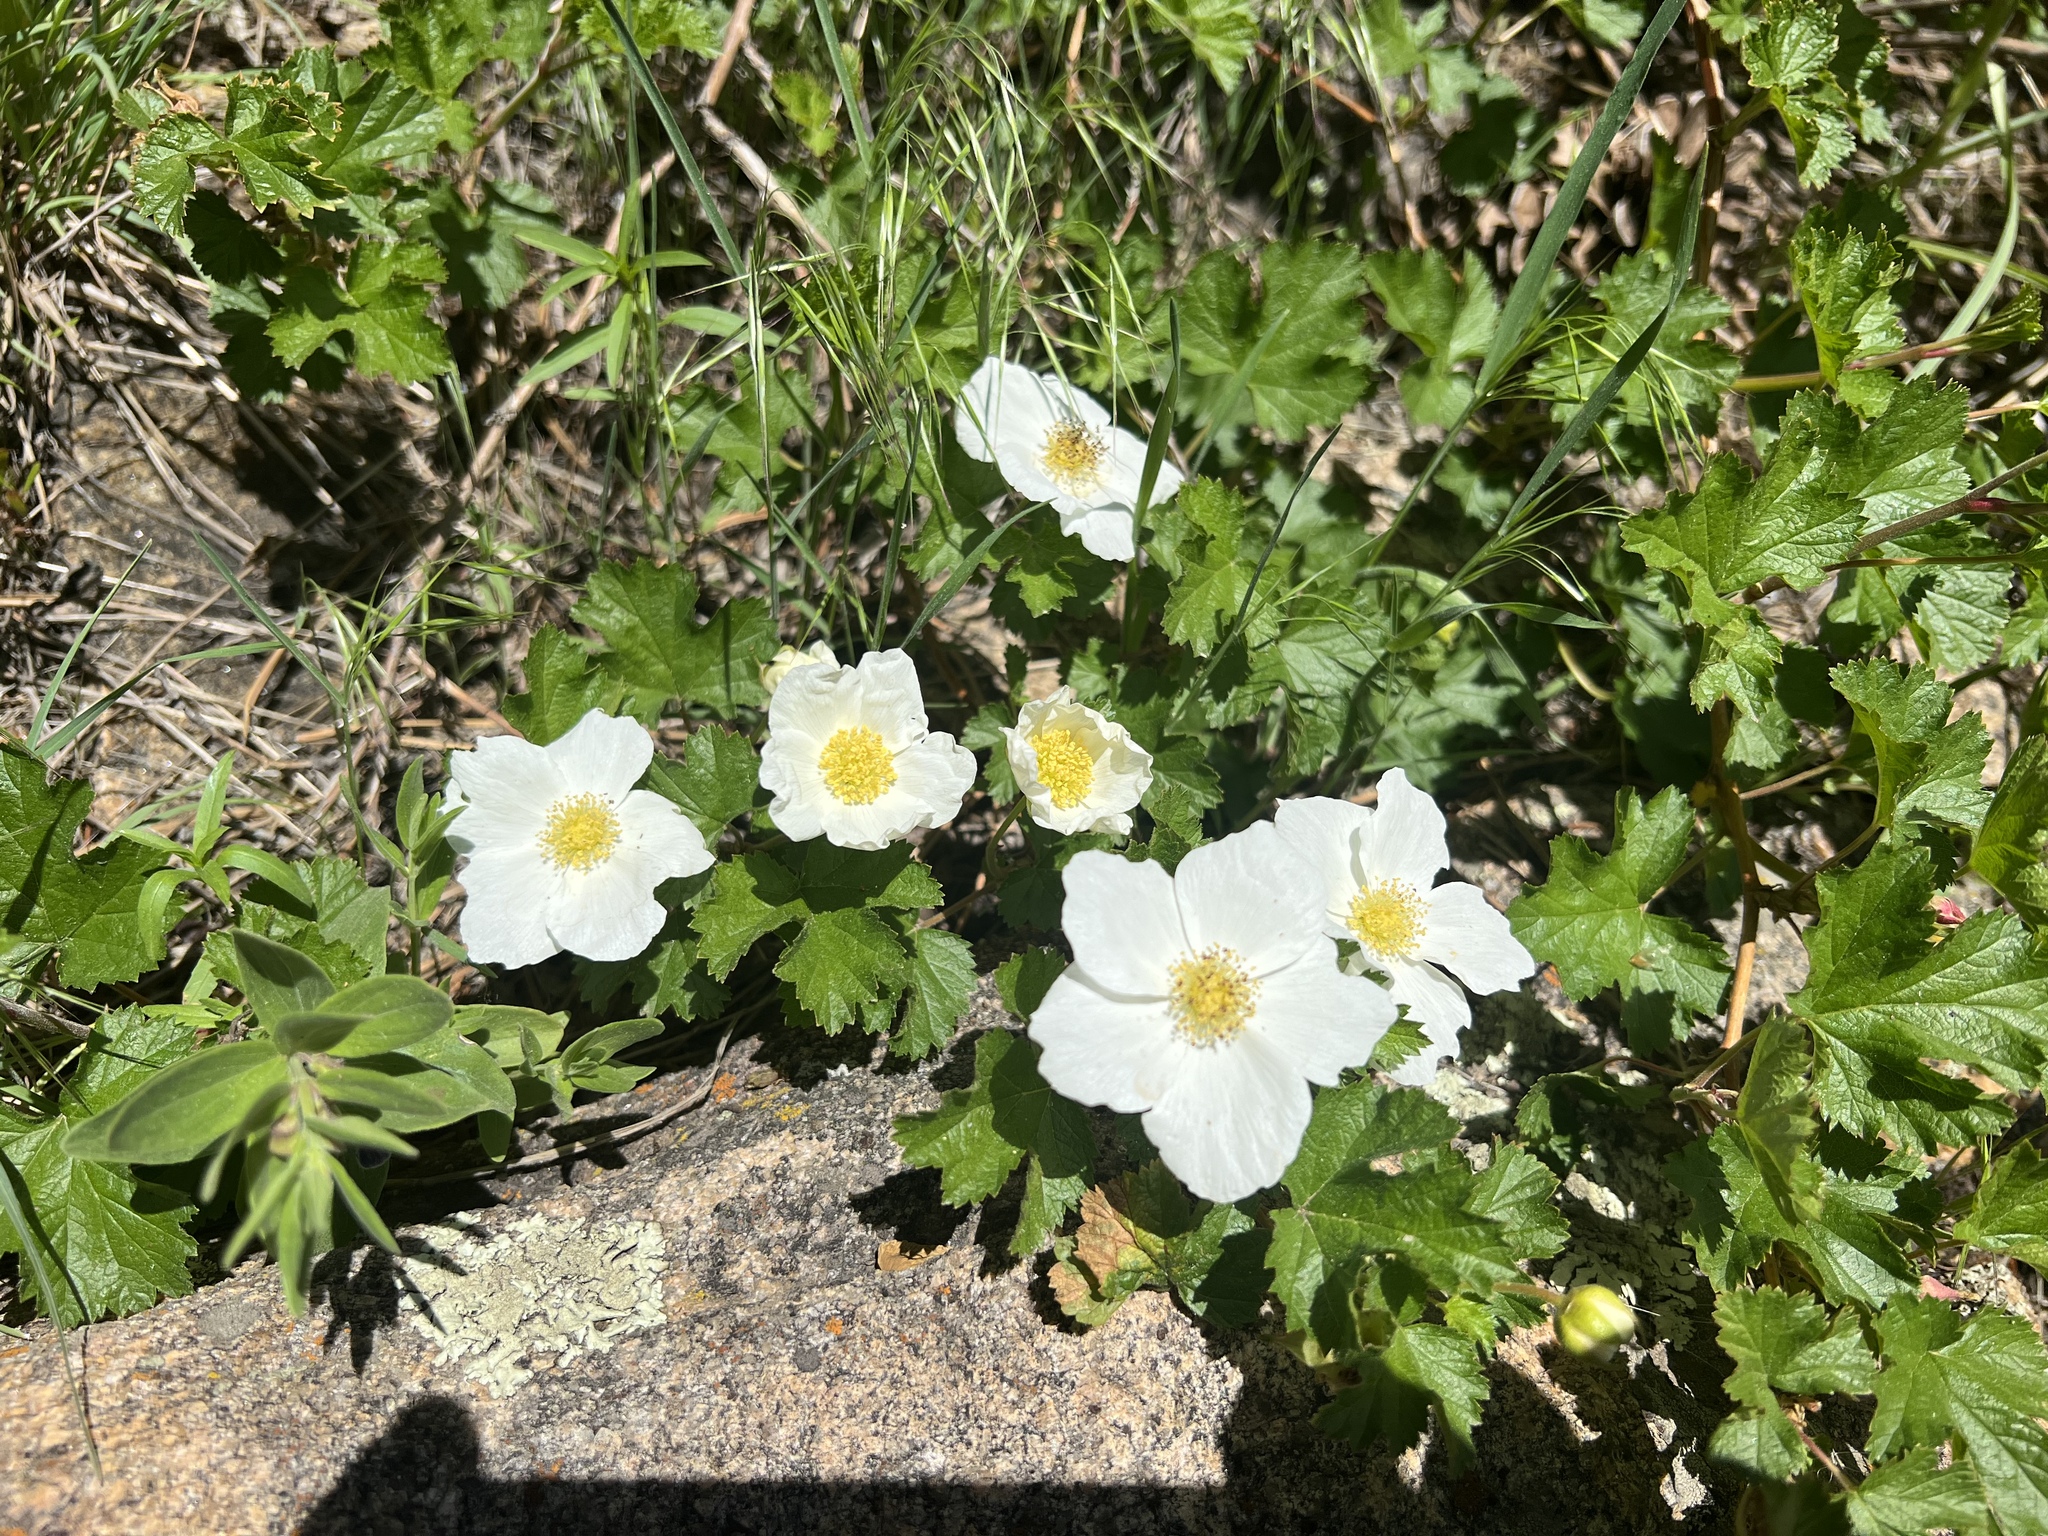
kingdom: Plantae
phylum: Tracheophyta
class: Magnoliopsida
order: Rosales
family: Rosaceae
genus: Rubus
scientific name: Rubus deliciosus
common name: Rocky mountain raspberry
